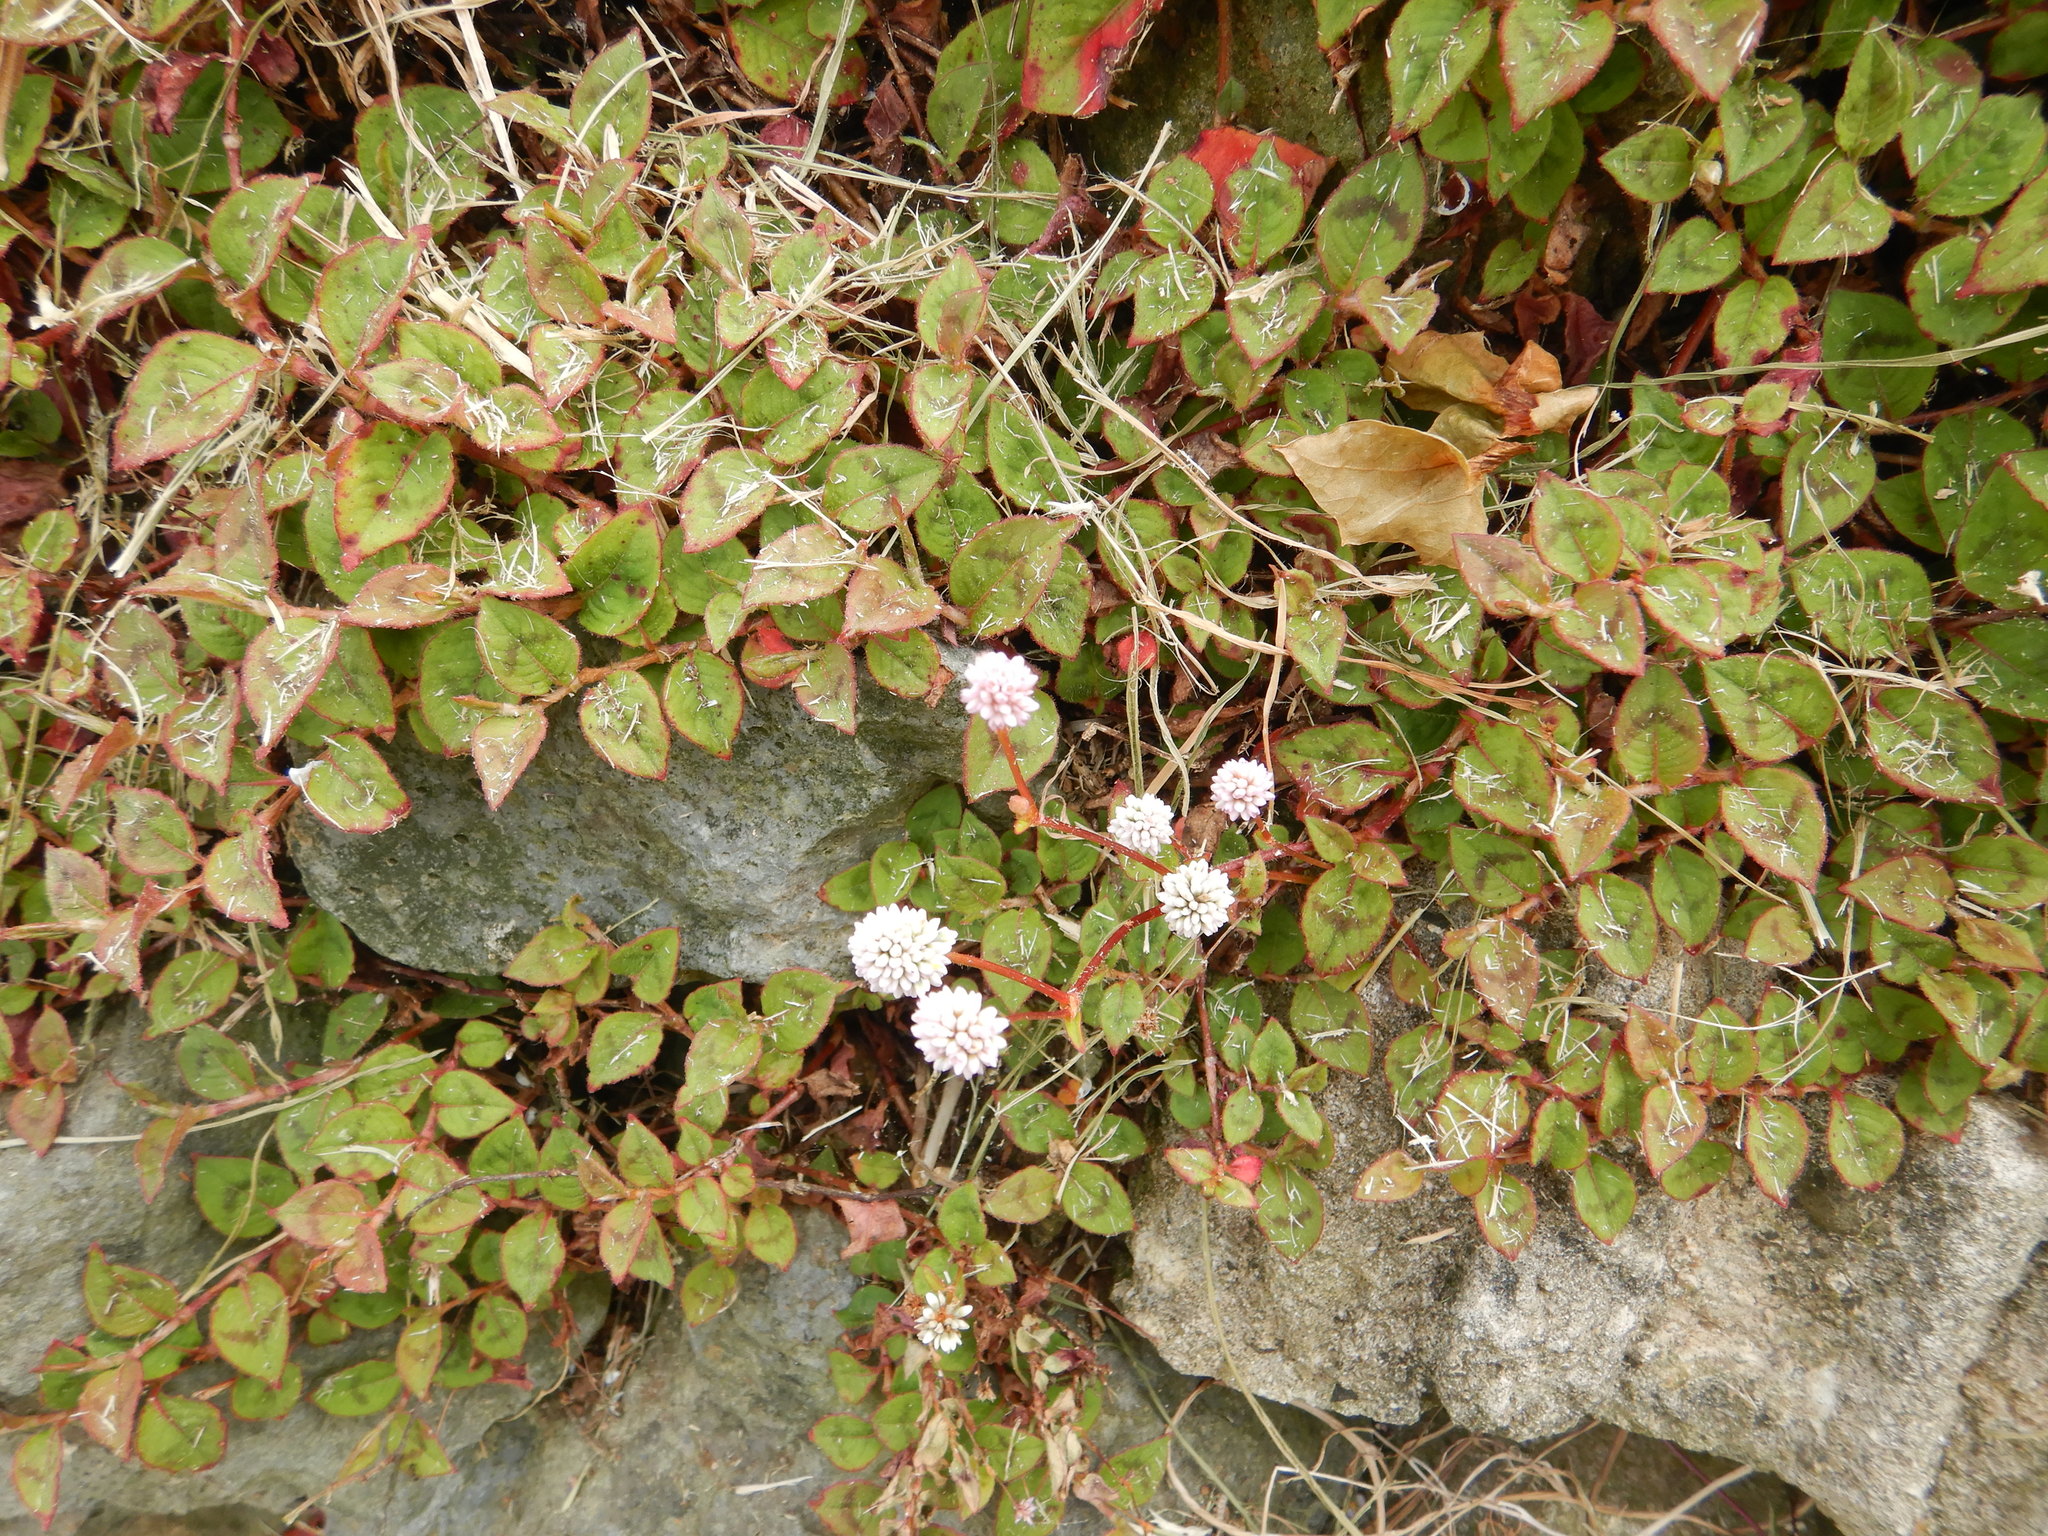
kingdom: Plantae
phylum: Tracheophyta
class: Magnoliopsida
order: Caryophyllales
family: Polygonaceae
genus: Persicaria
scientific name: Persicaria capitata
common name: Pinkhead smartweed
